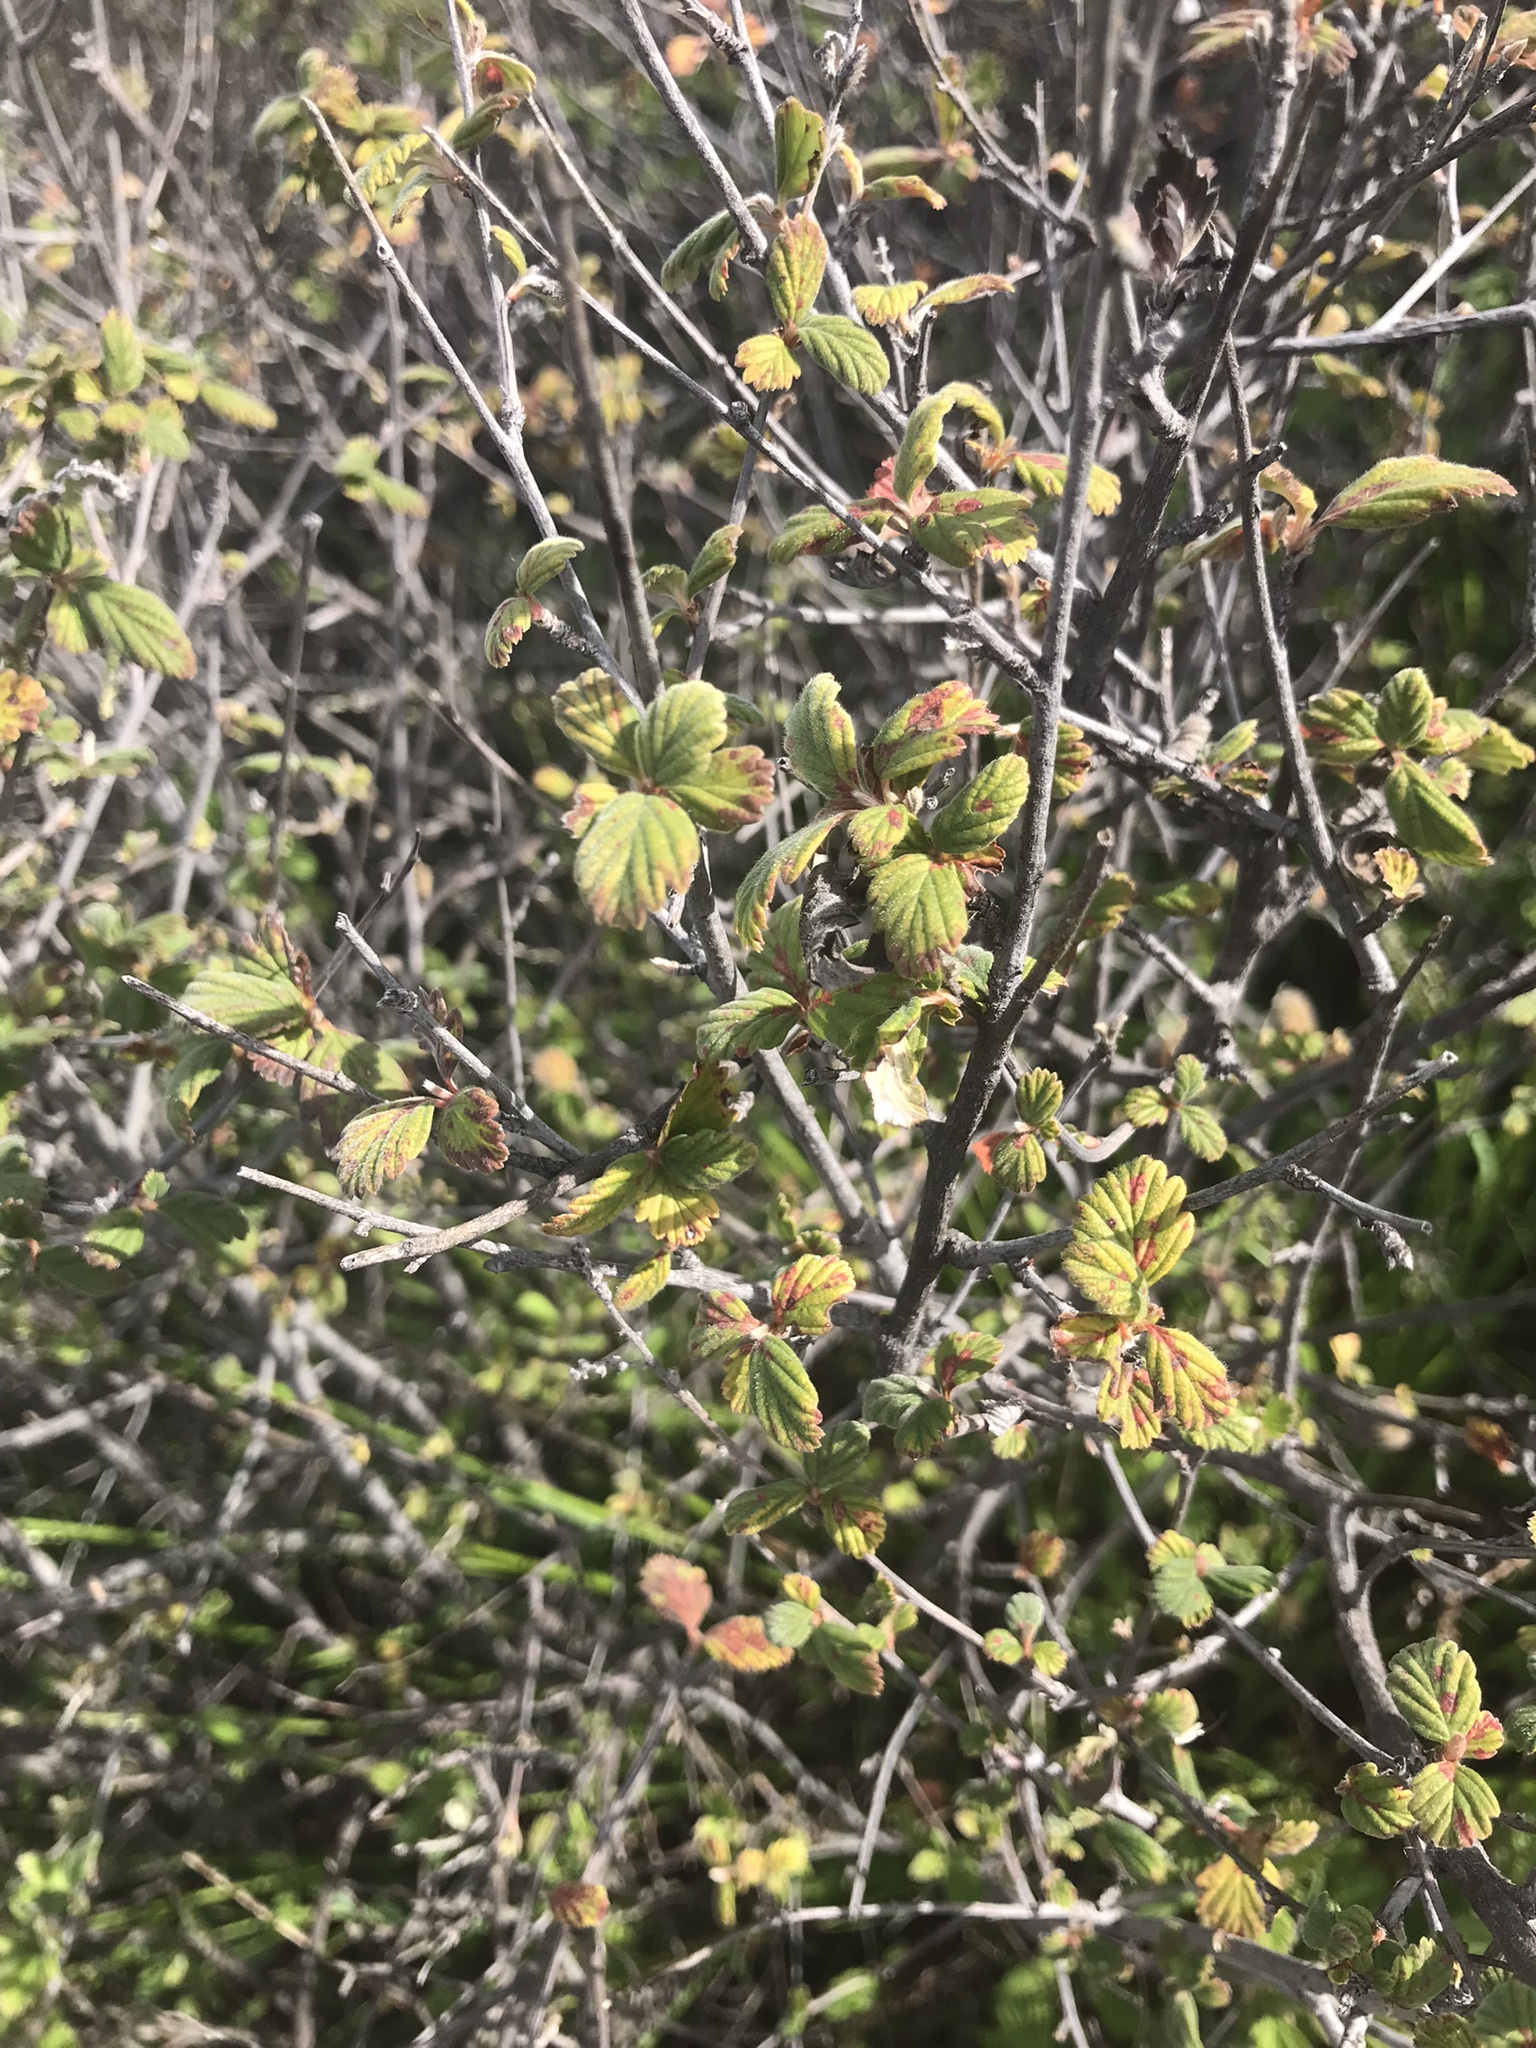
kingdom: Plantae
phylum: Tracheophyta
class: Magnoliopsida
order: Rosales
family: Rosaceae
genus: Holodiscus
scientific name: Holodiscus discolor
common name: Oceanspray
